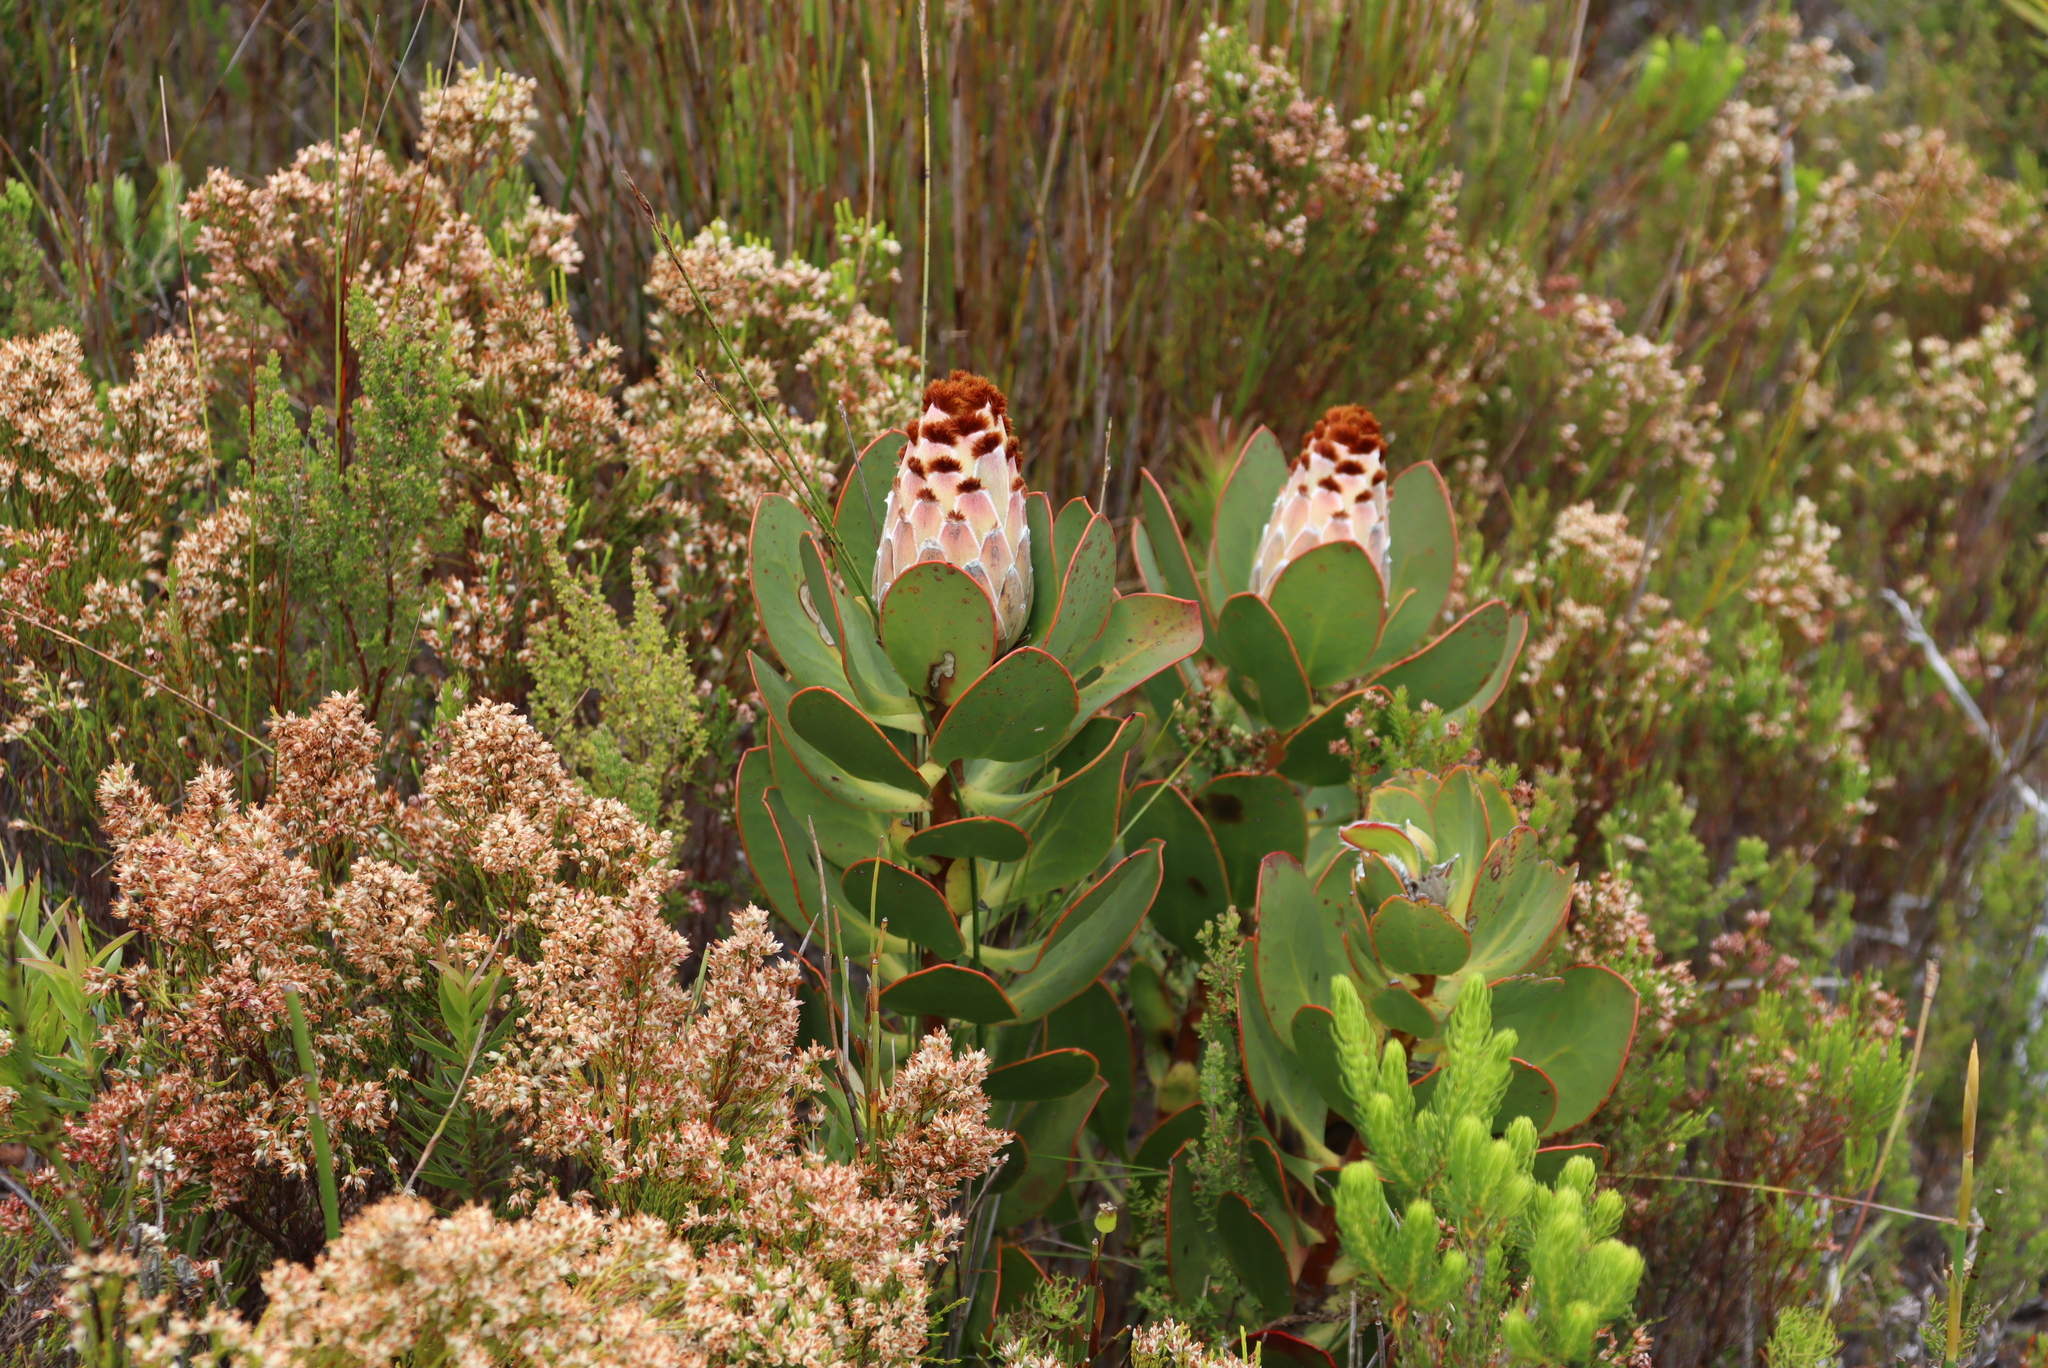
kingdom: Plantae
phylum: Tracheophyta
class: Magnoliopsida
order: Proteales
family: Proteaceae
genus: Protea
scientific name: Protea speciosa
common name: Brown-beard sugarbush
